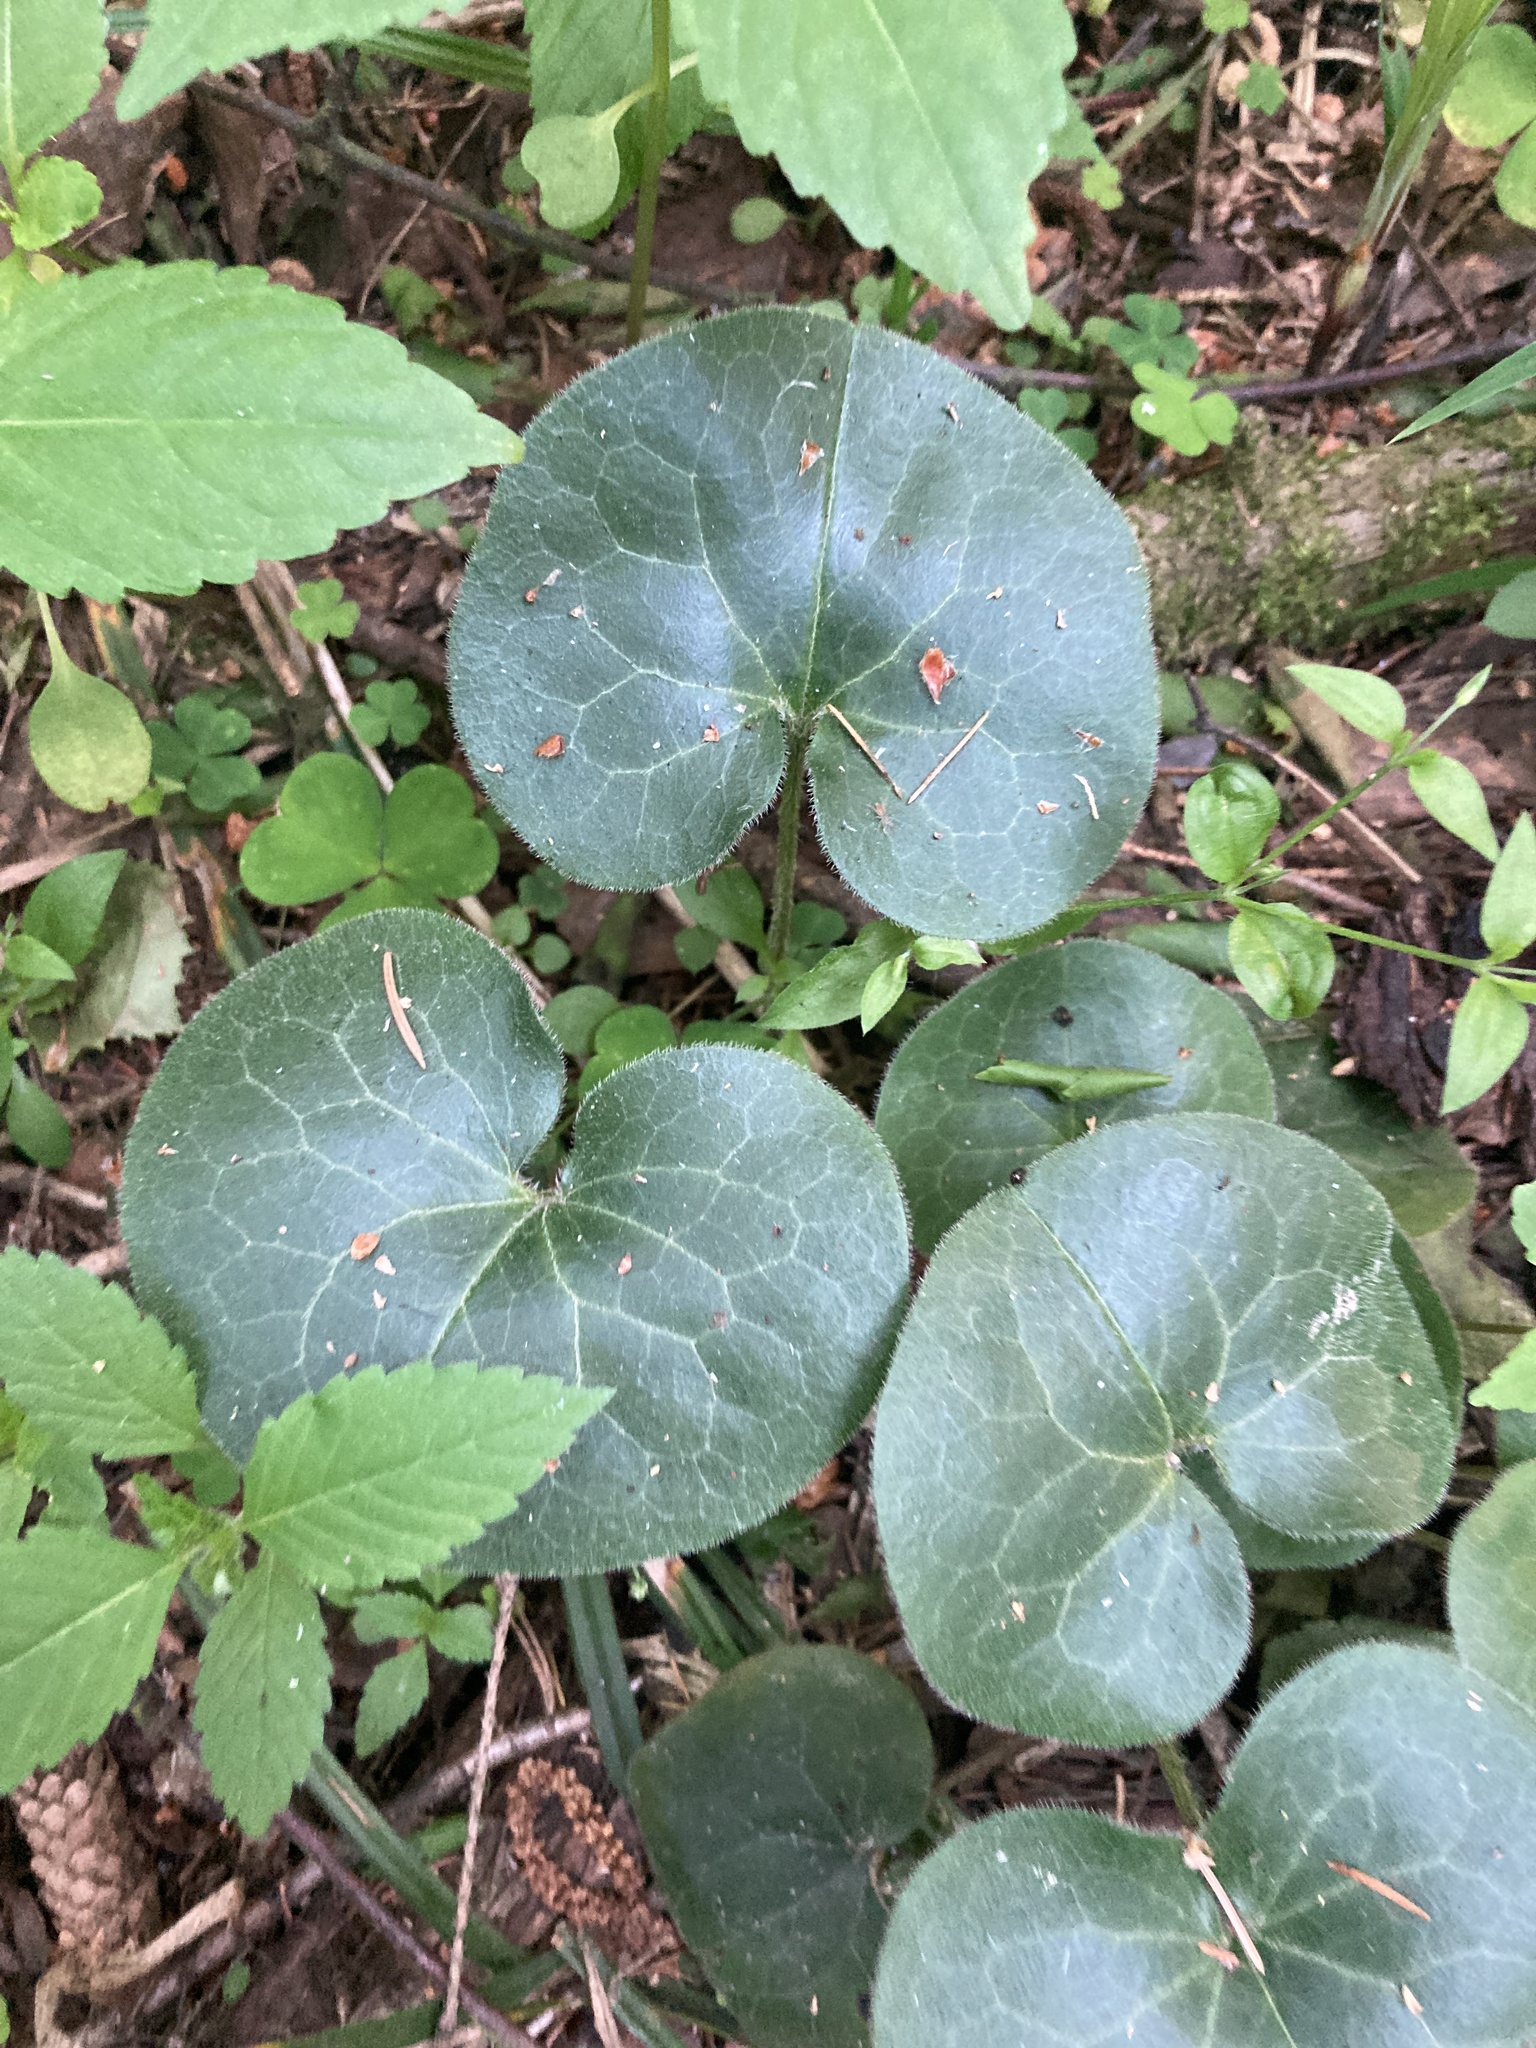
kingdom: Plantae
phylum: Tracheophyta
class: Magnoliopsida
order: Piperales
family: Aristolochiaceae
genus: Asarum
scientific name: Asarum europaeum
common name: Asarabacca
